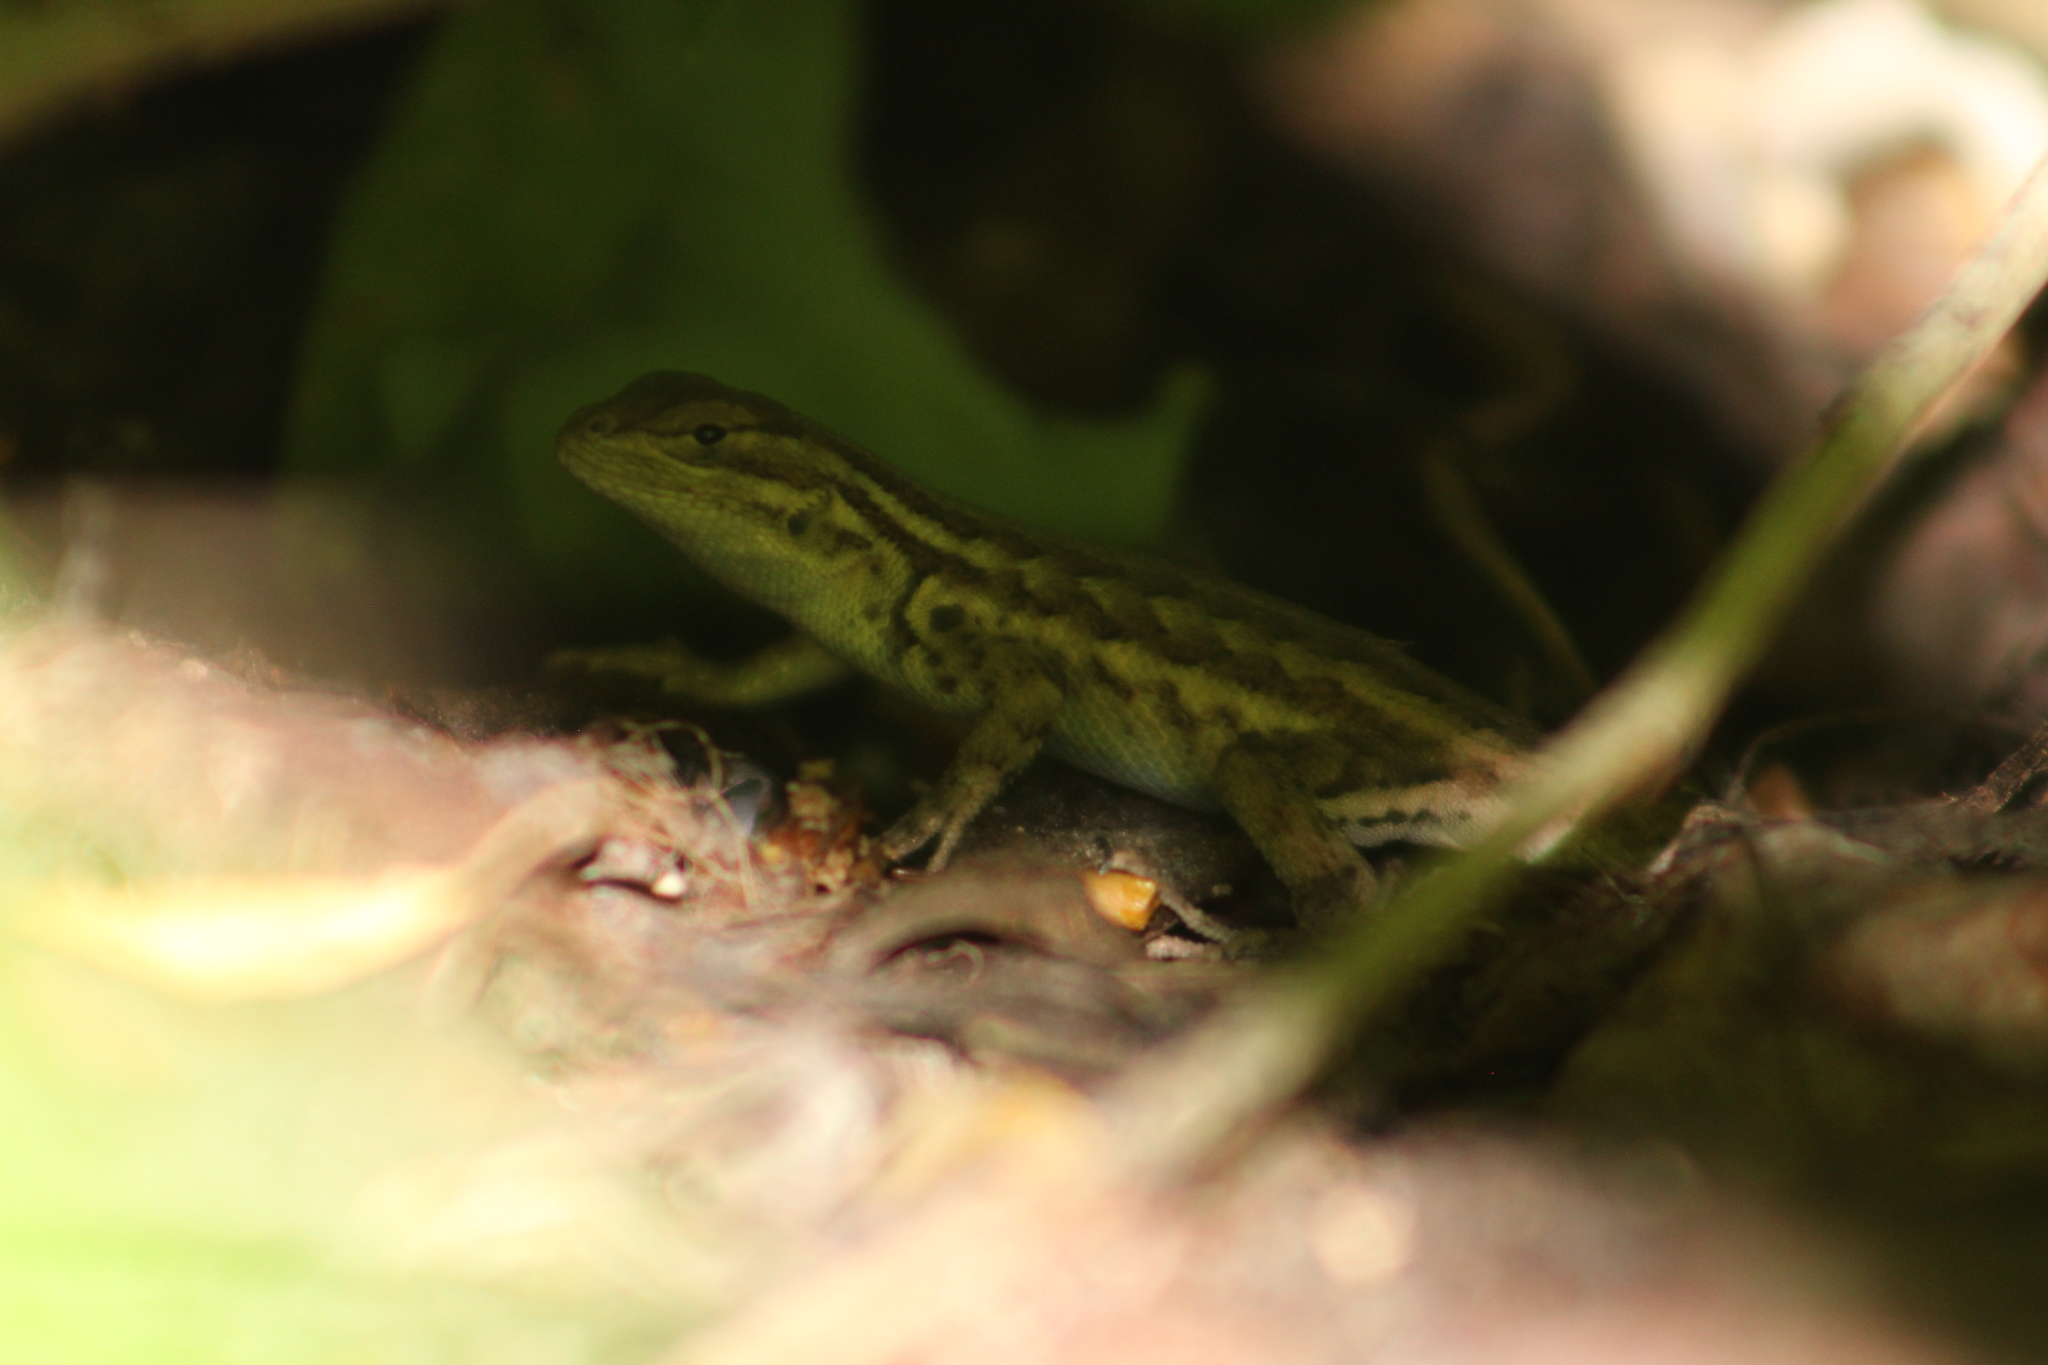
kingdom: Animalia
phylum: Chordata
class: Squamata
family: Phrynosomatidae
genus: Sceloporus
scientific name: Sceloporus graciosus
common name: Sagebrush lizard
